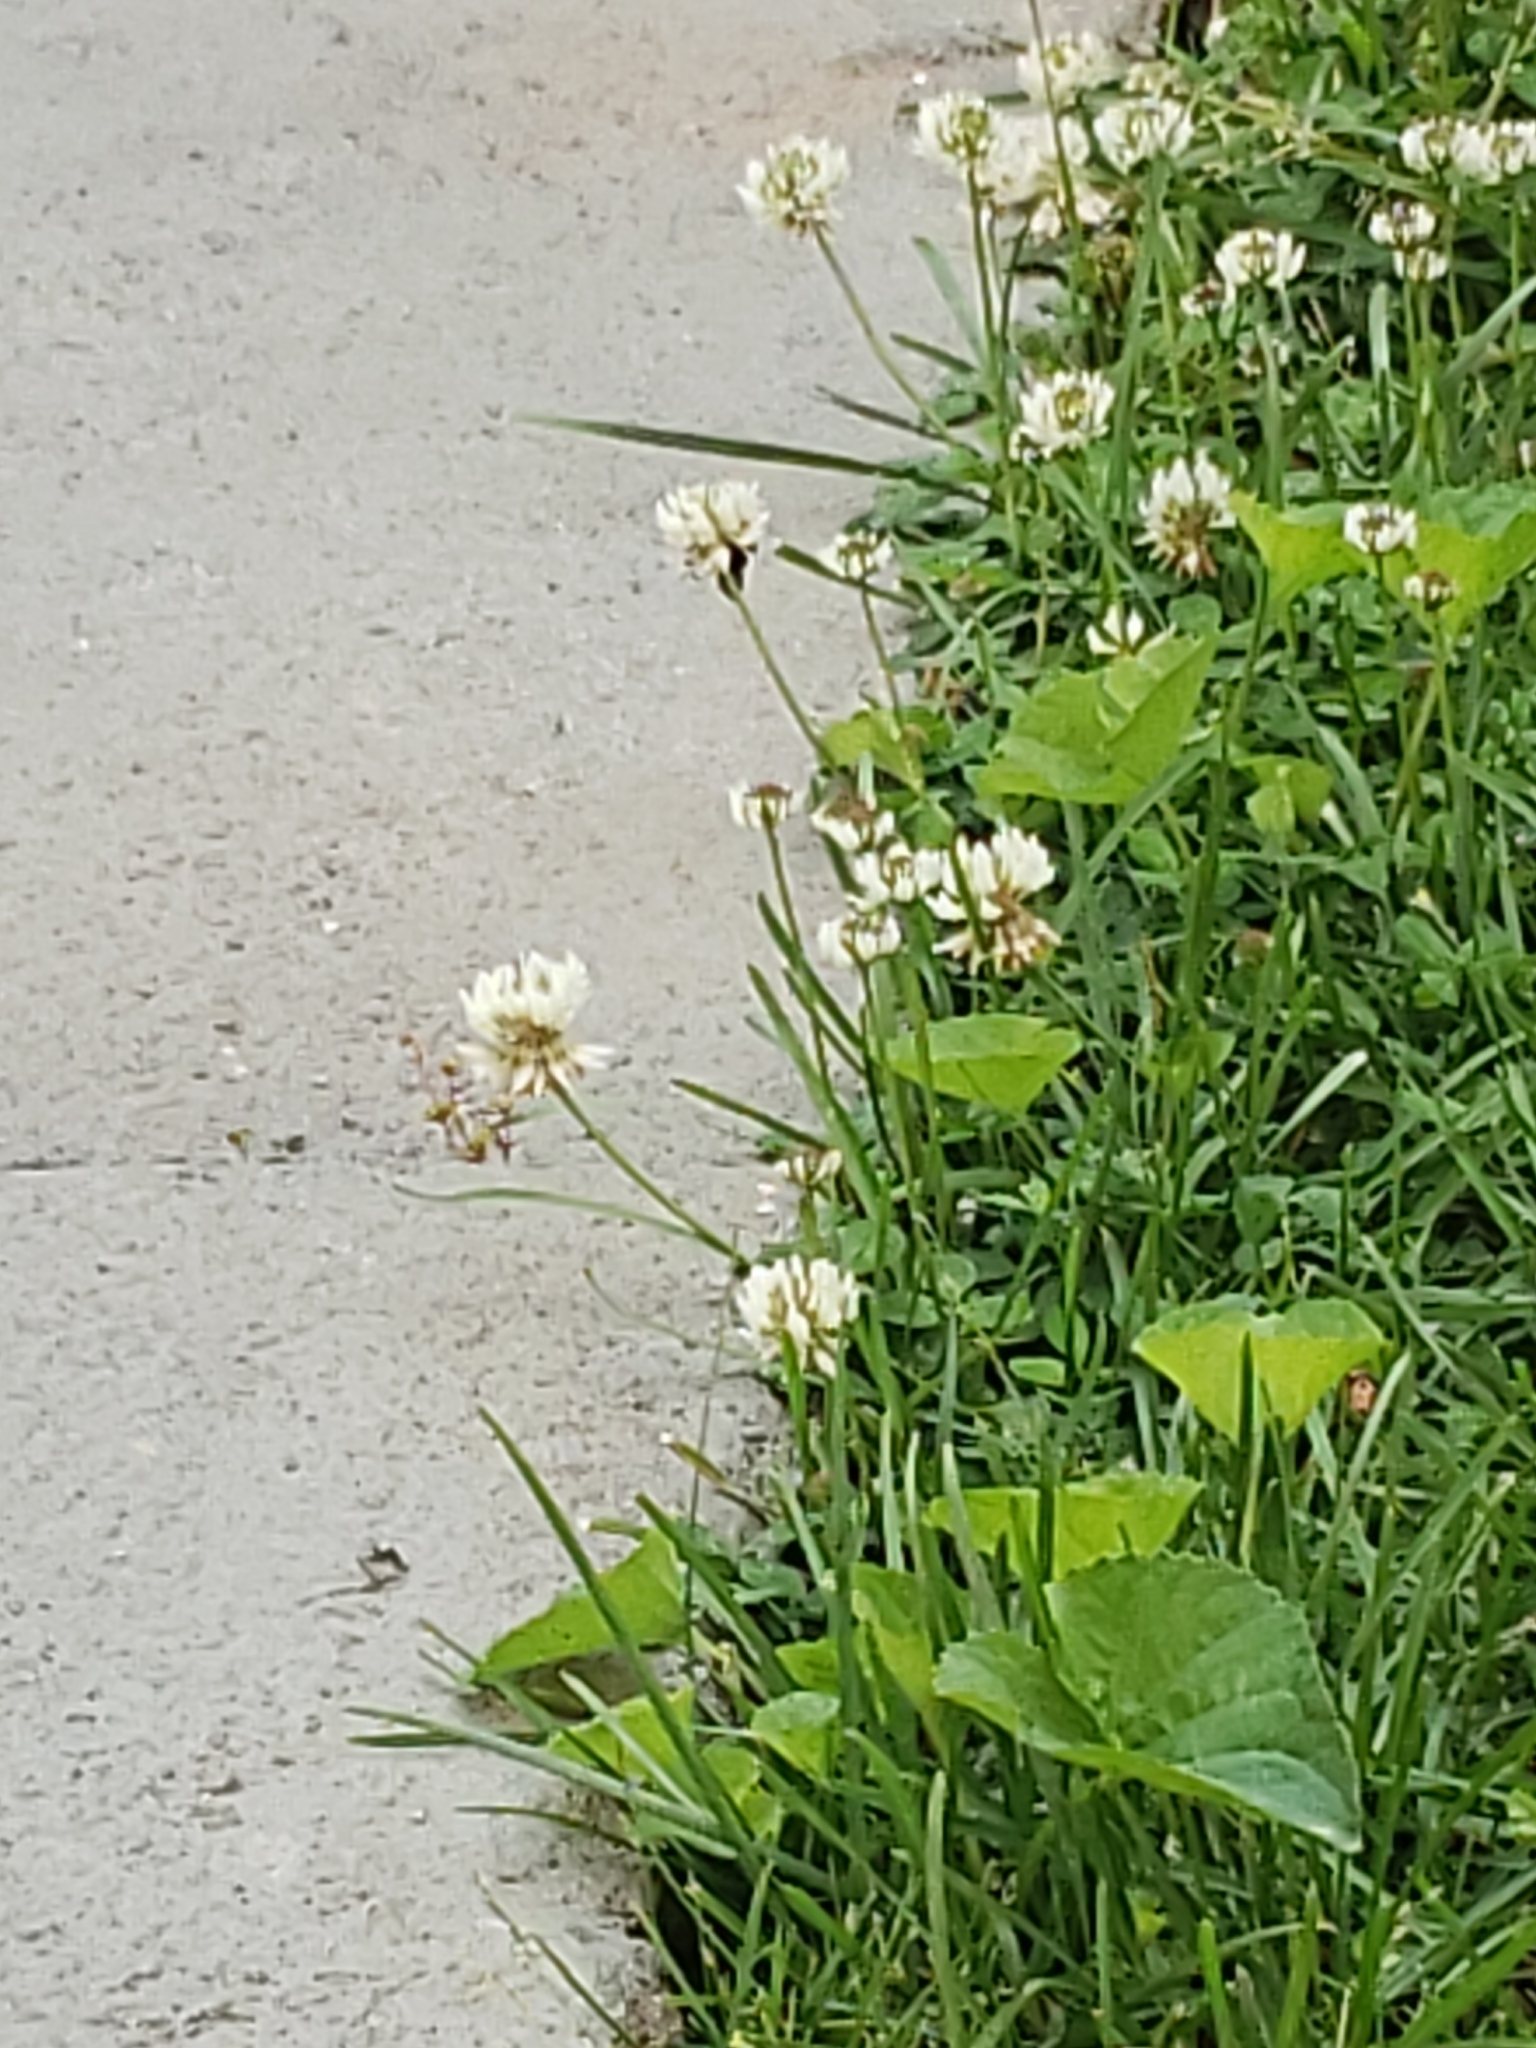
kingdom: Plantae
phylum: Tracheophyta
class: Magnoliopsida
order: Fabales
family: Fabaceae
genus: Trifolium
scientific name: Trifolium repens
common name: White clover
